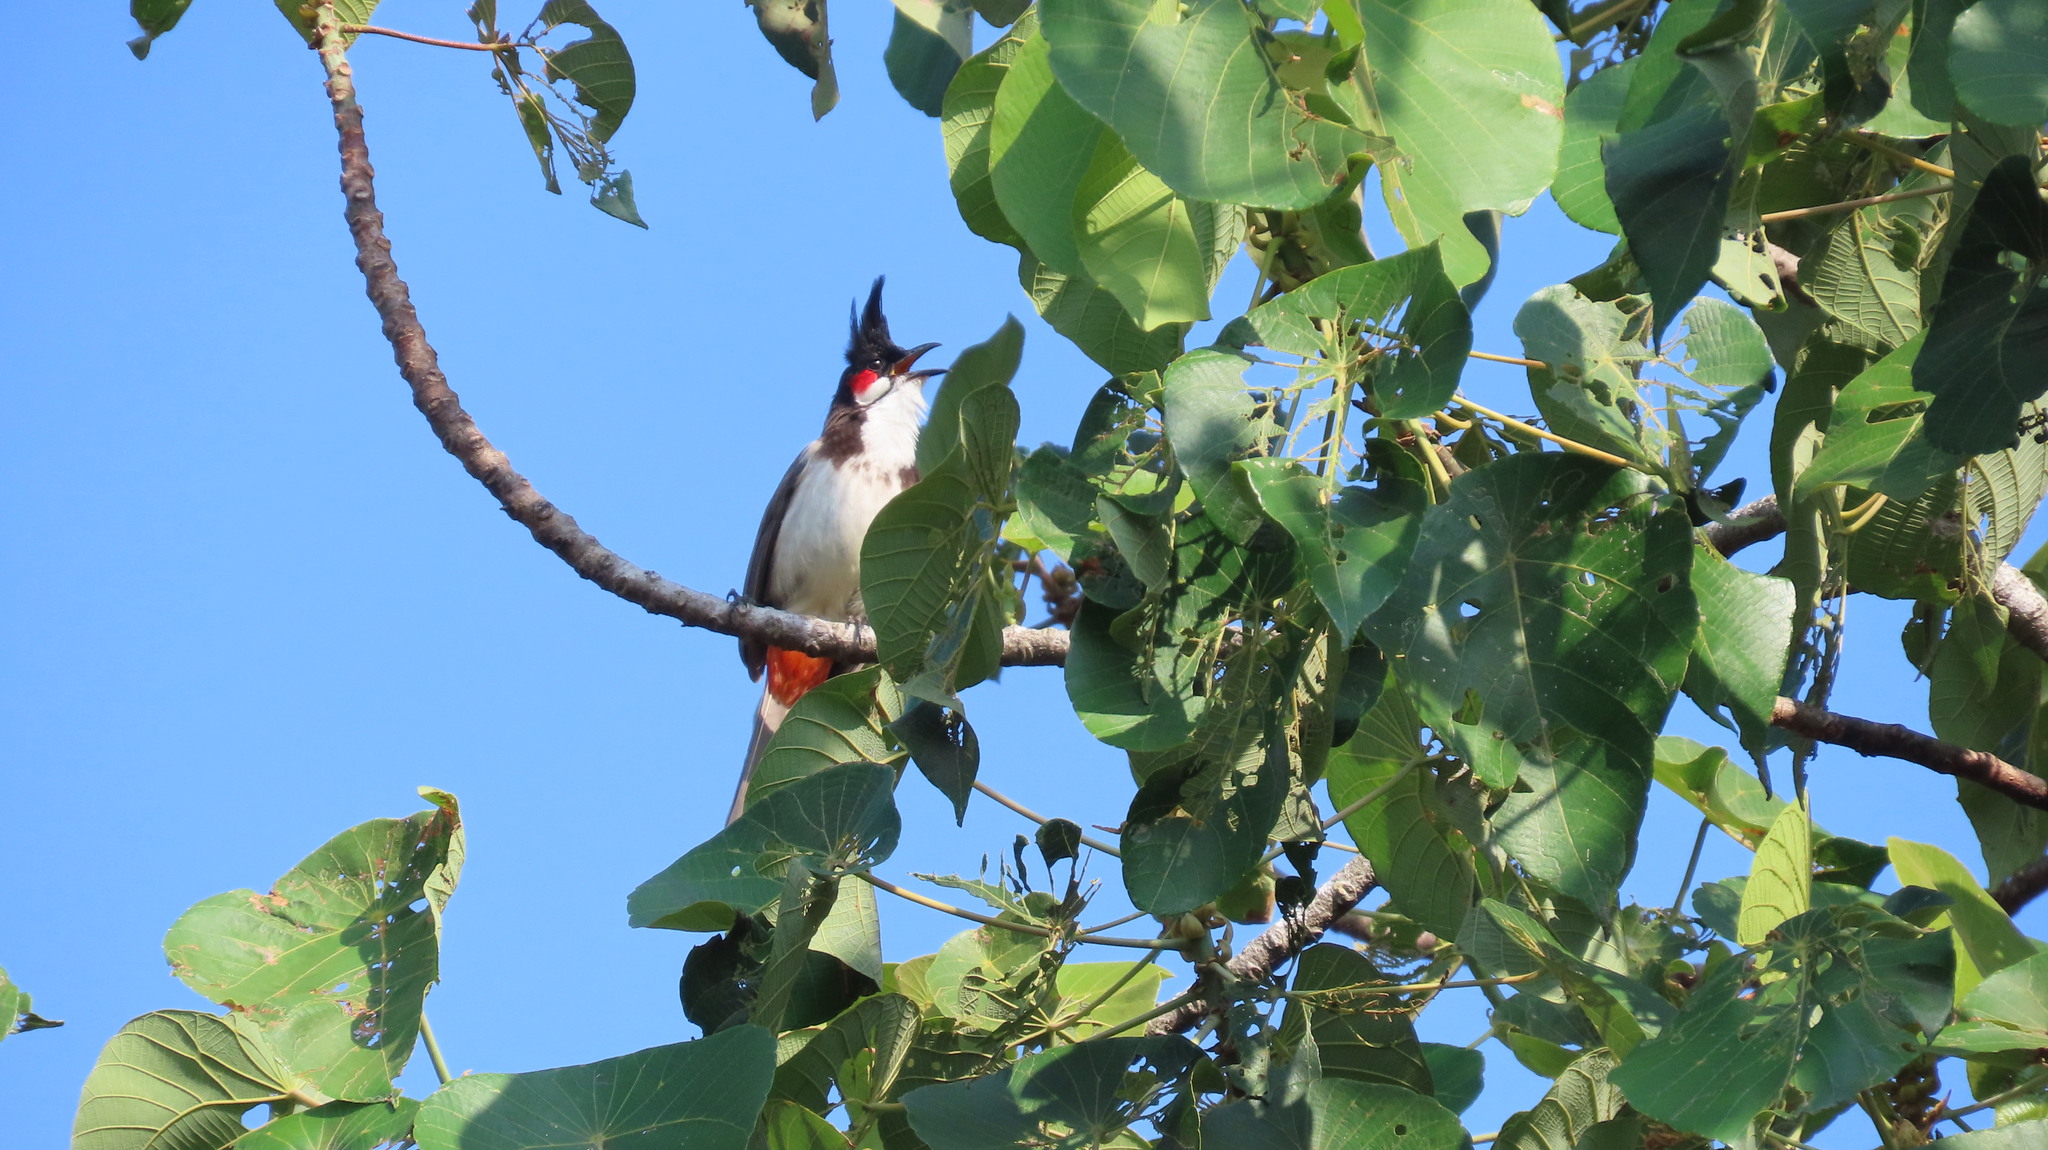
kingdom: Animalia
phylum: Chordata
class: Aves
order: Passeriformes
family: Pycnonotidae
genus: Pycnonotus
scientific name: Pycnonotus jocosus
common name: Red-whiskered bulbul
